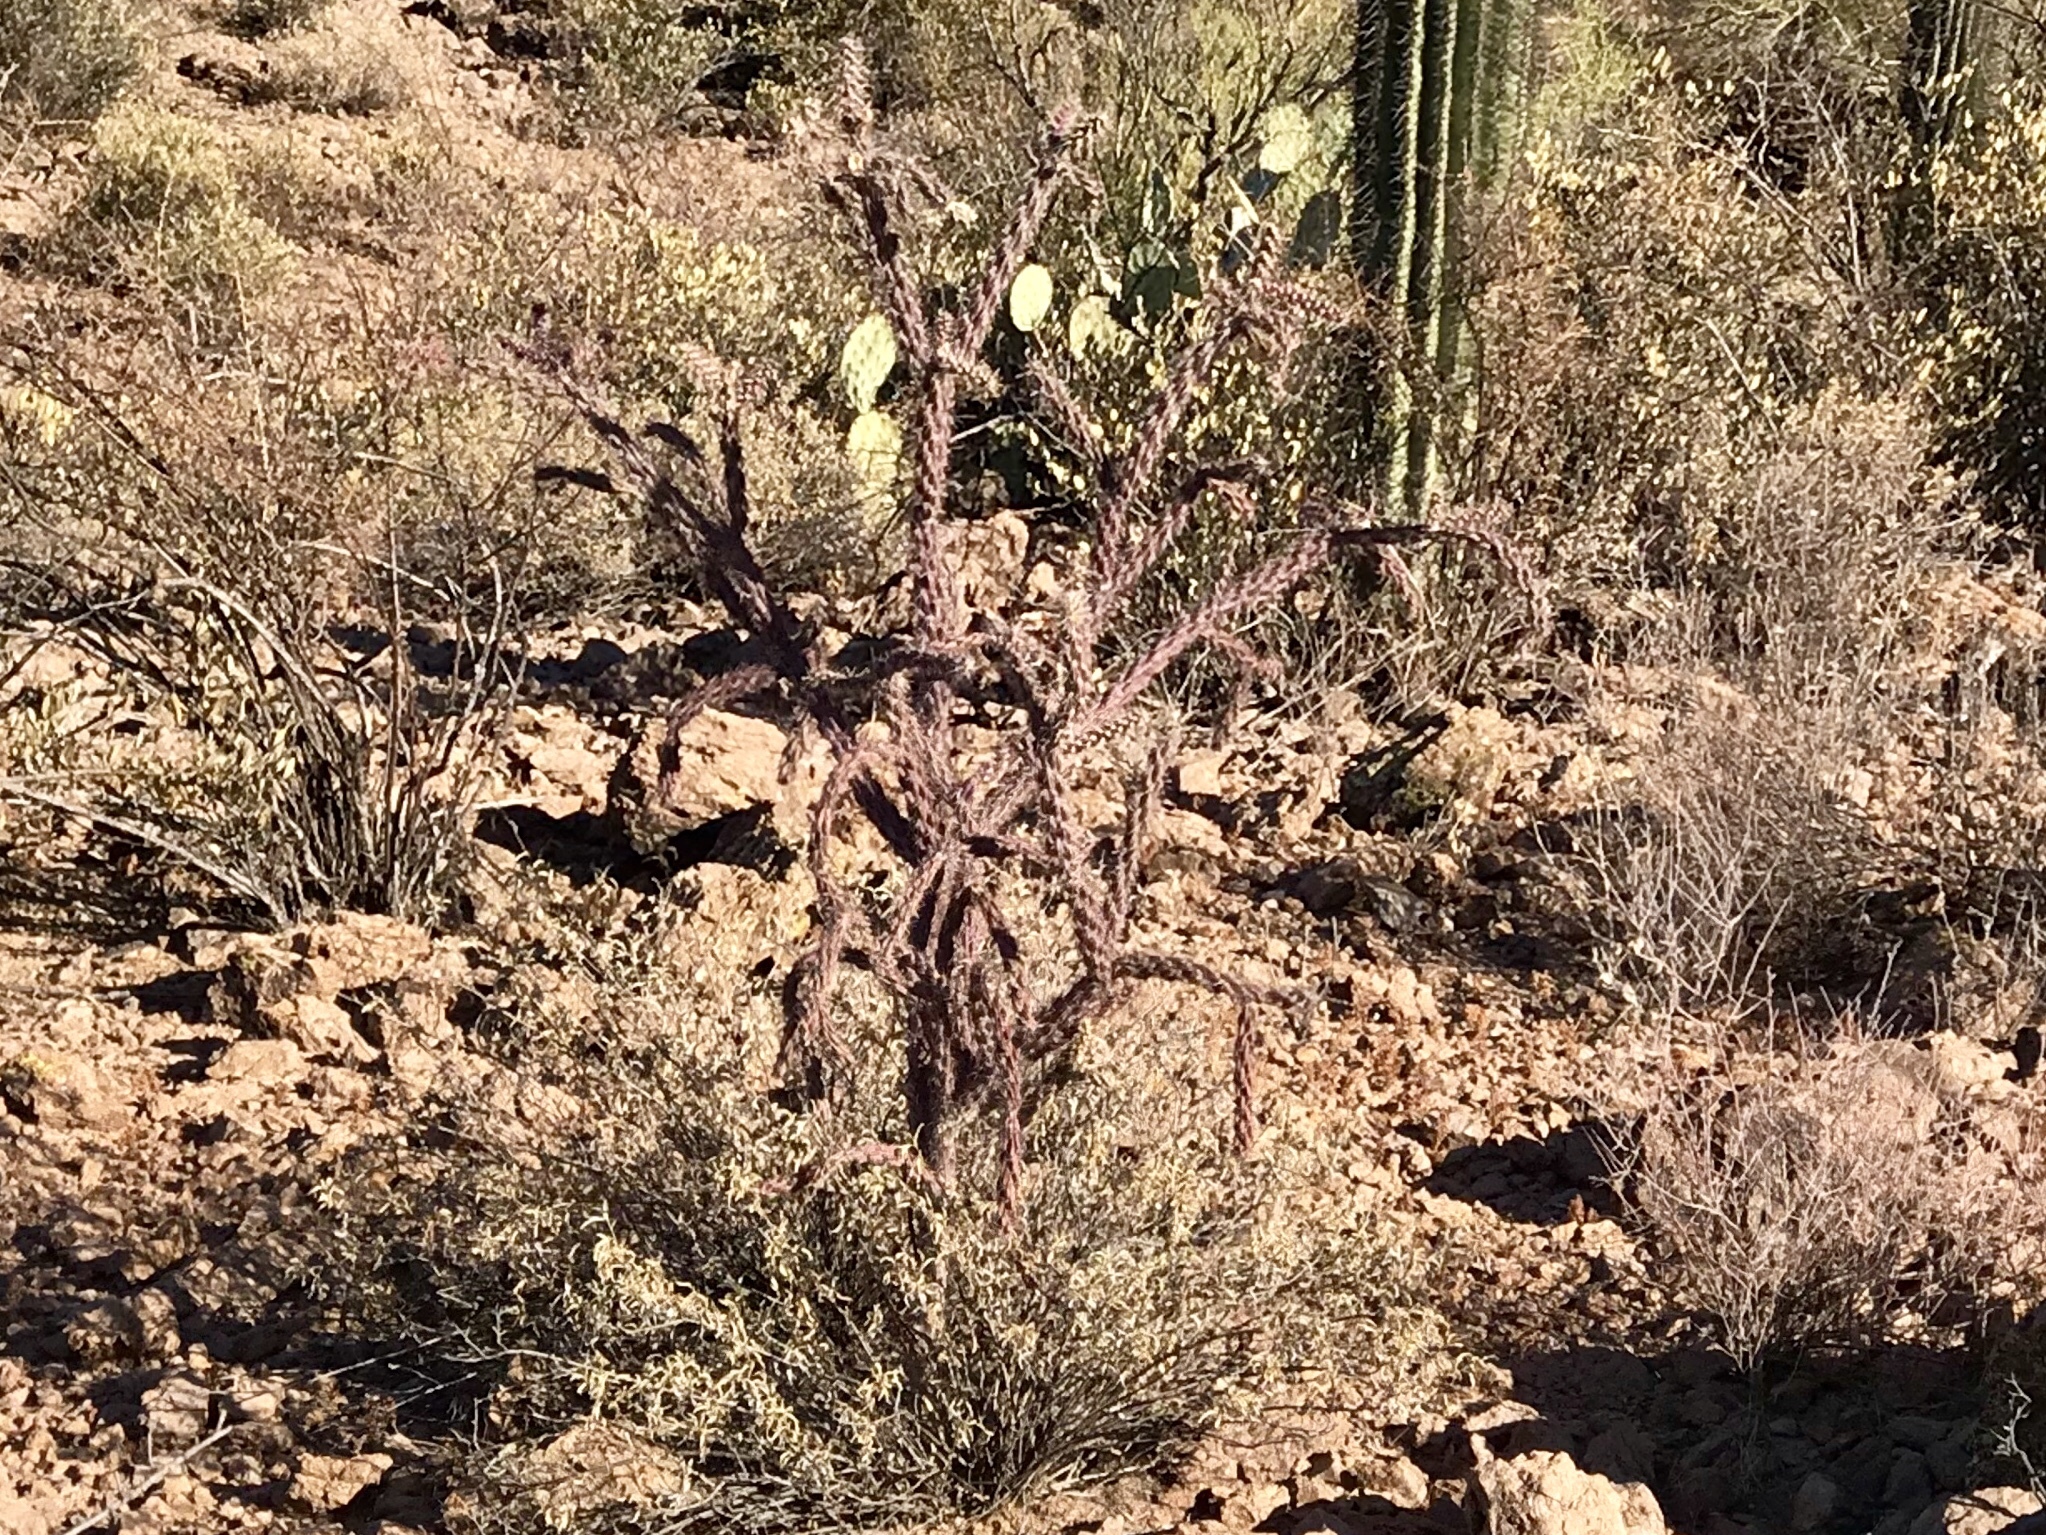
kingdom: Plantae
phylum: Tracheophyta
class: Magnoliopsida
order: Caryophyllales
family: Cactaceae
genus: Cylindropuntia
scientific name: Cylindropuntia thurberi
